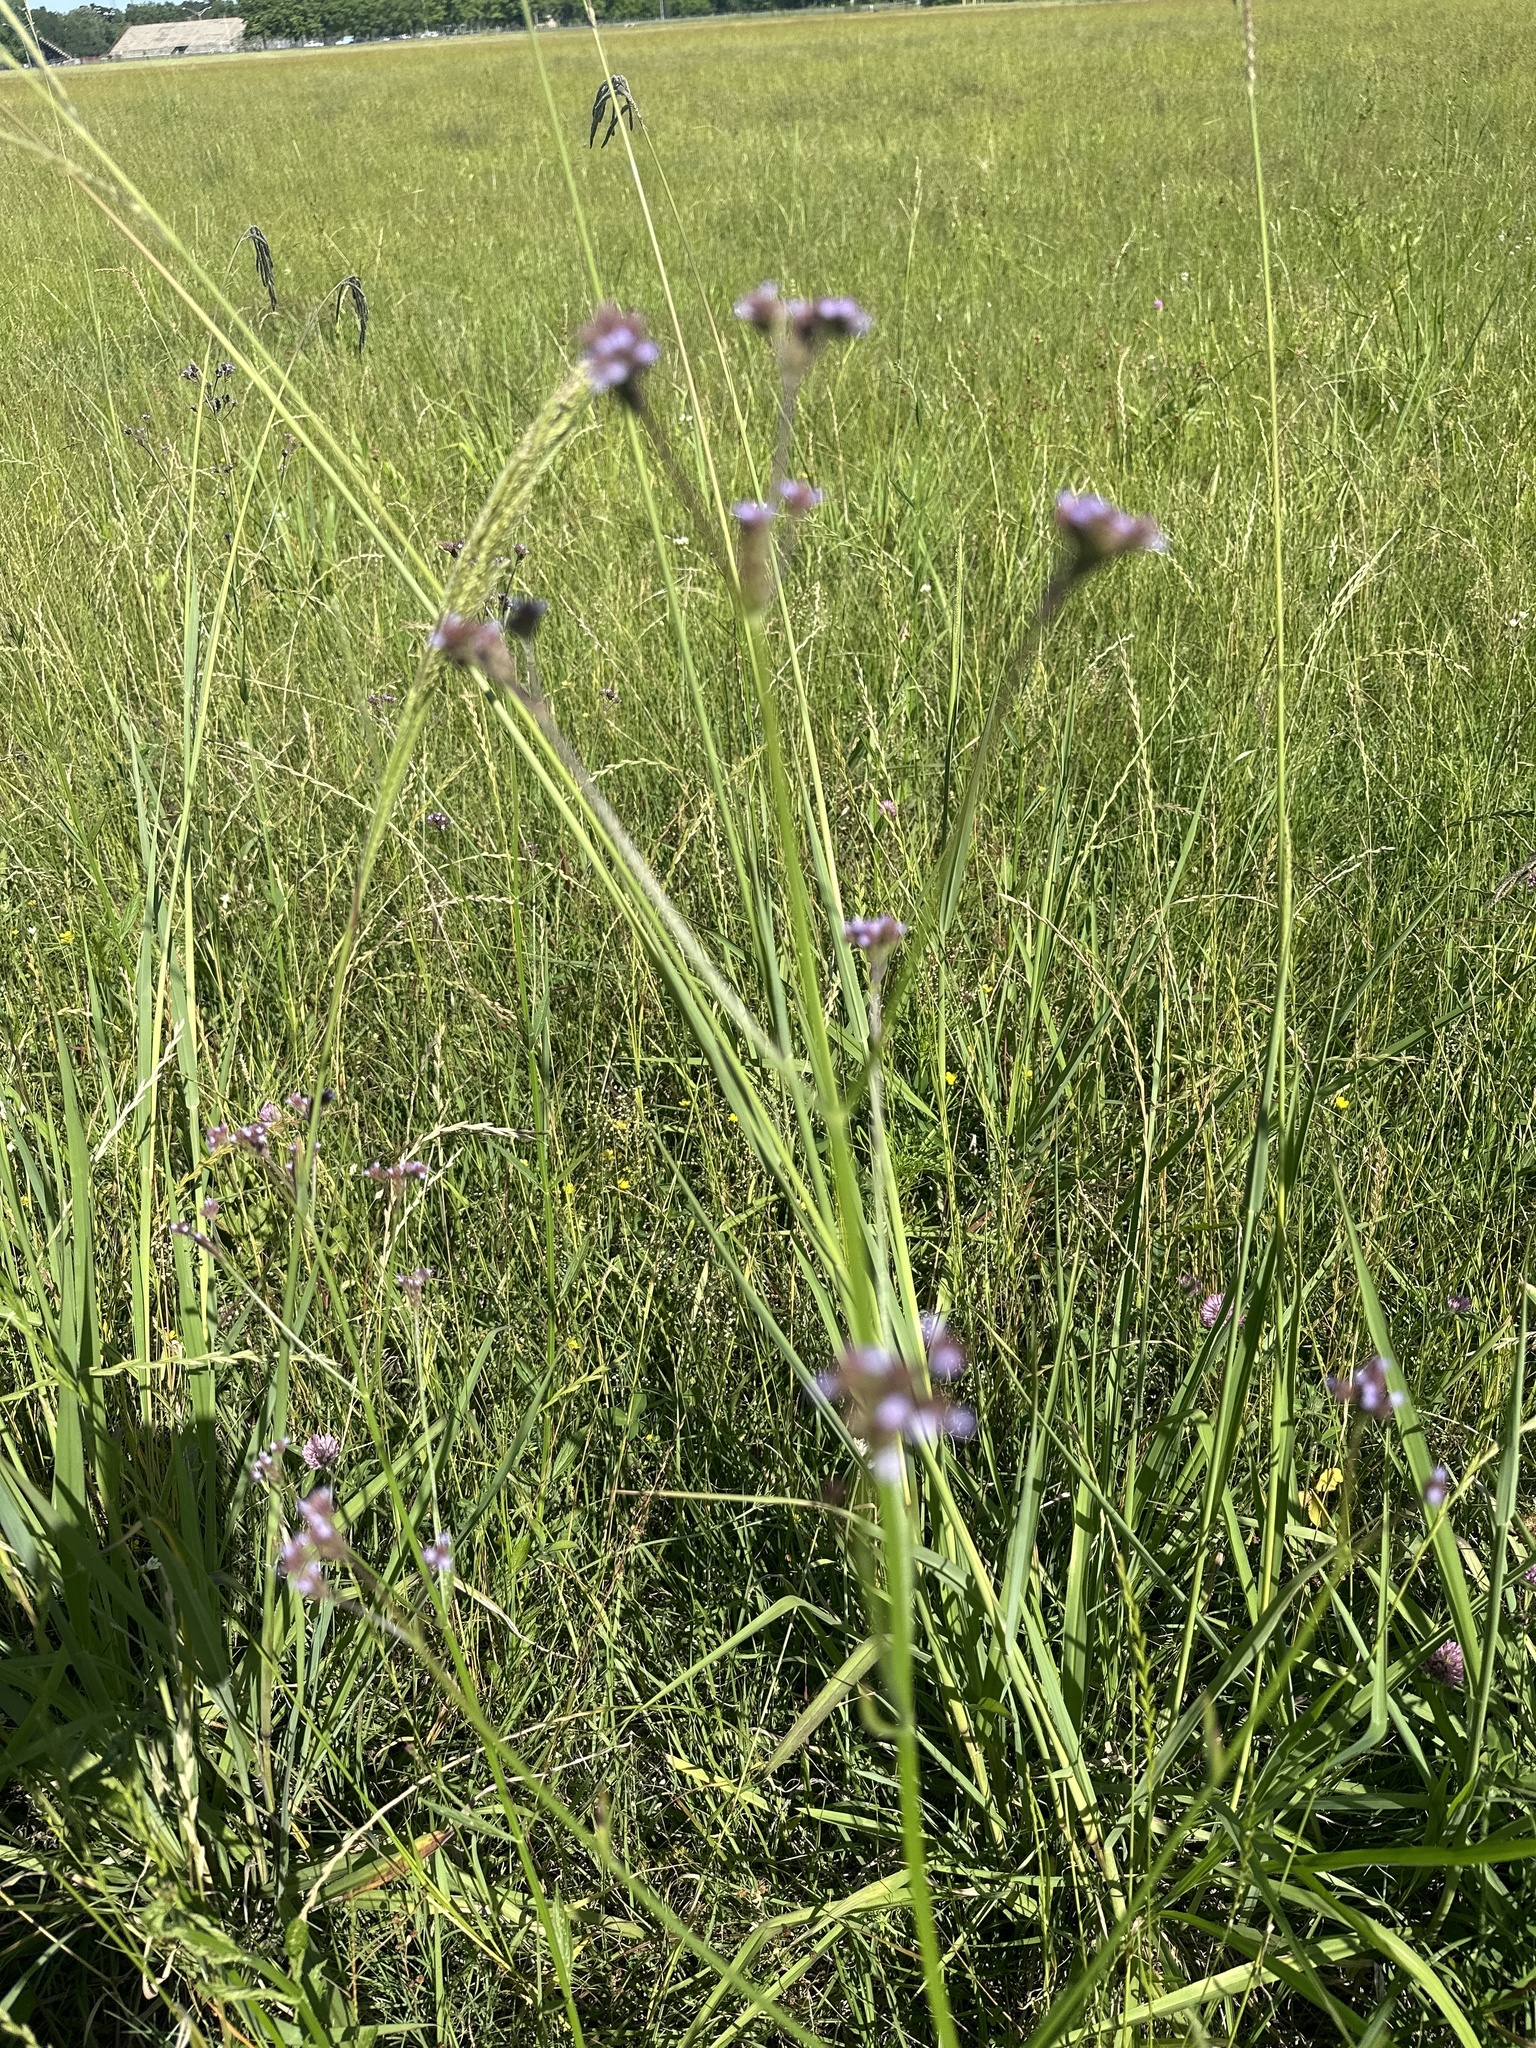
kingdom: Plantae
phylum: Tracheophyta
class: Magnoliopsida
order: Lamiales
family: Verbenaceae
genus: Verbena
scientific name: Verbena brasiliensis
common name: Brazilian vervain
